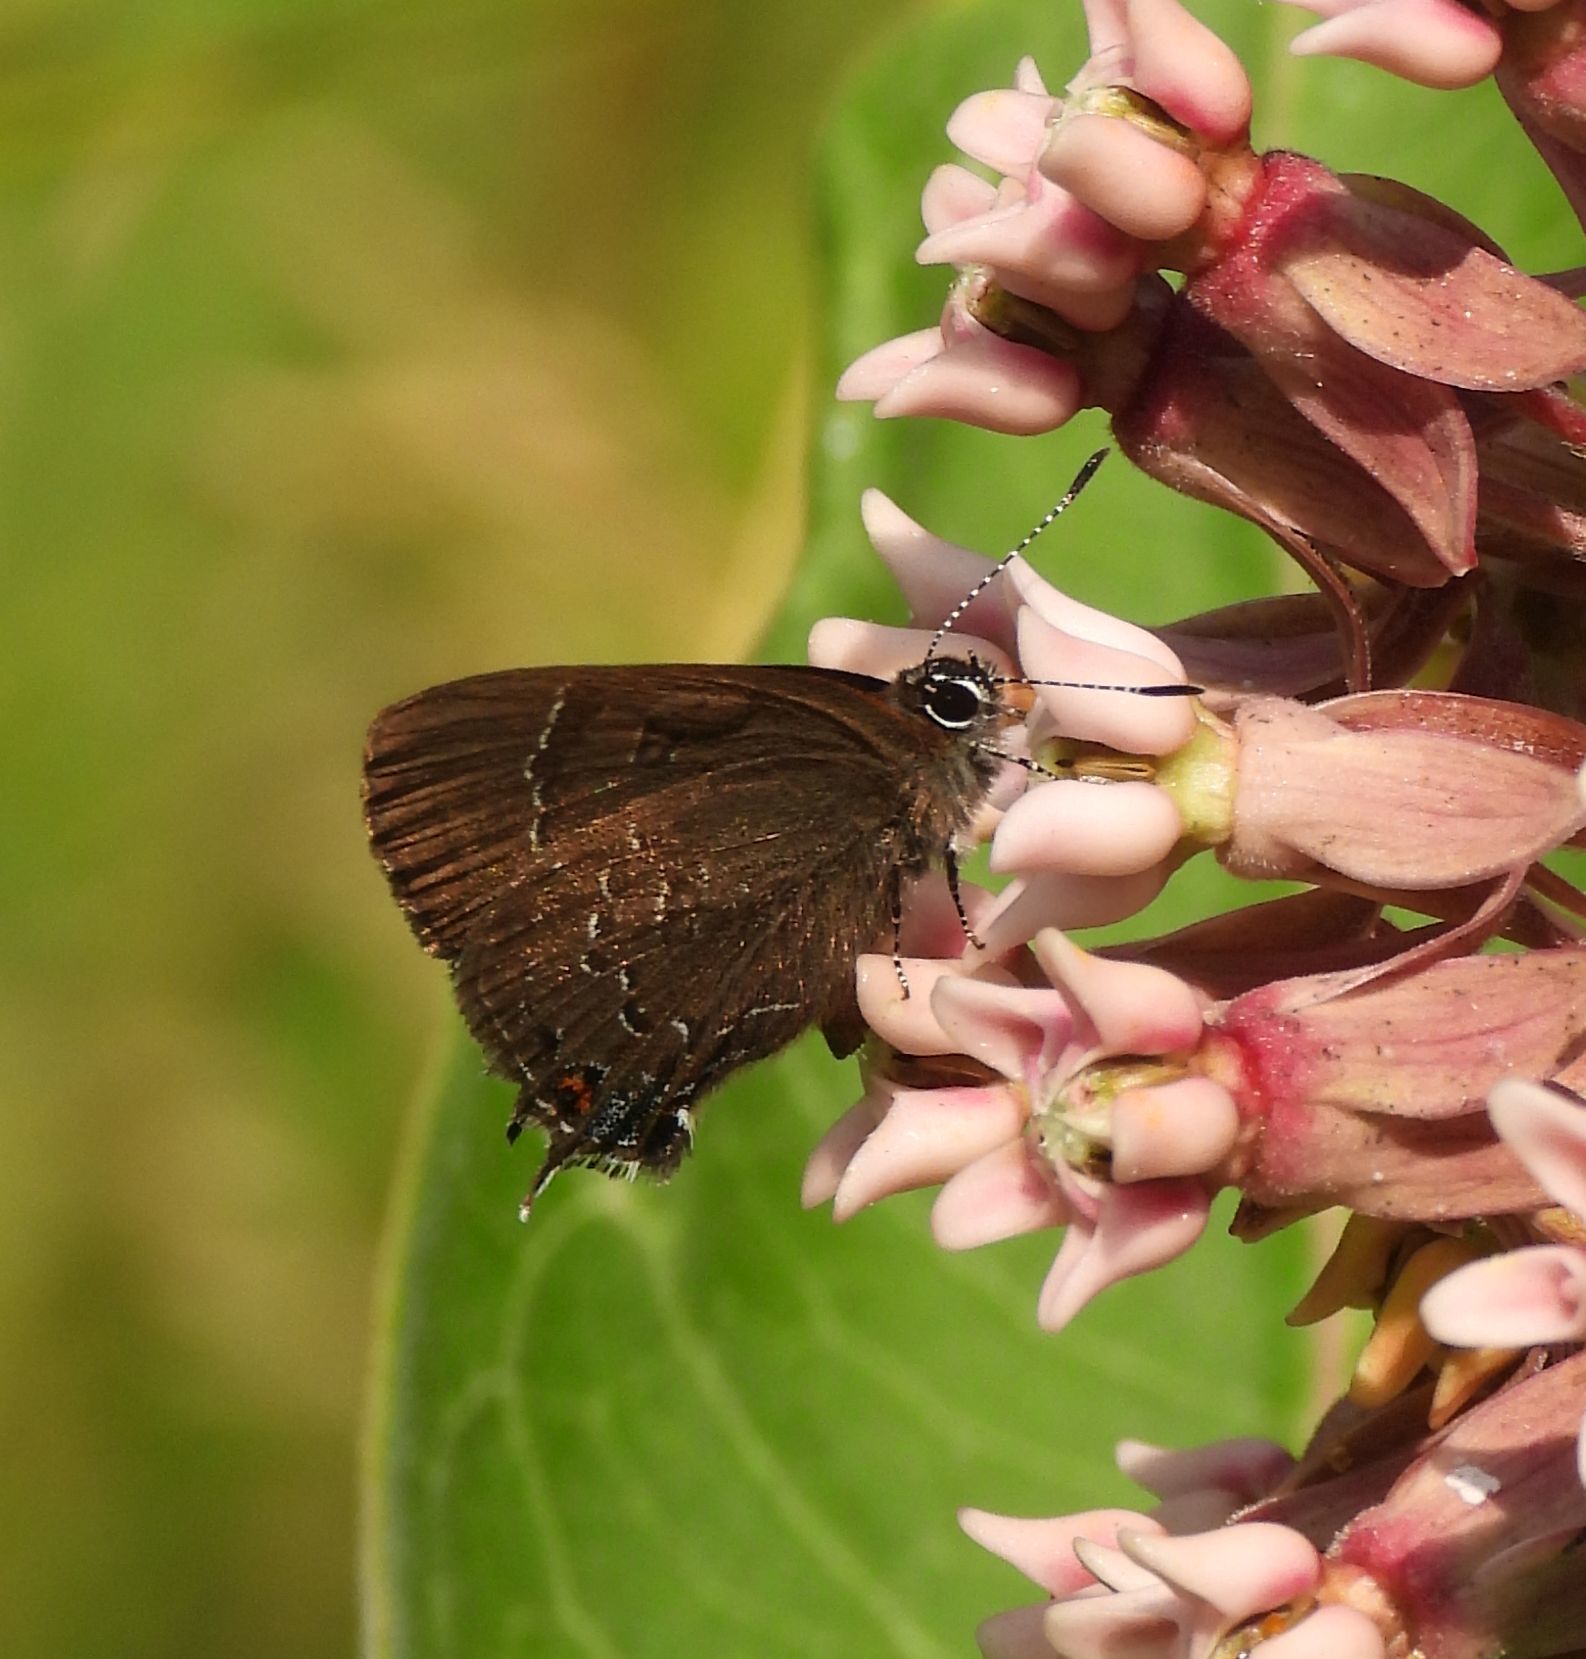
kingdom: Animalia
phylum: Arthropoda
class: Insecta
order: Lepidoptera
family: Lycaenidae
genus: Satyrium
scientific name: Satyrium calanus
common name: Banded hairstreak
